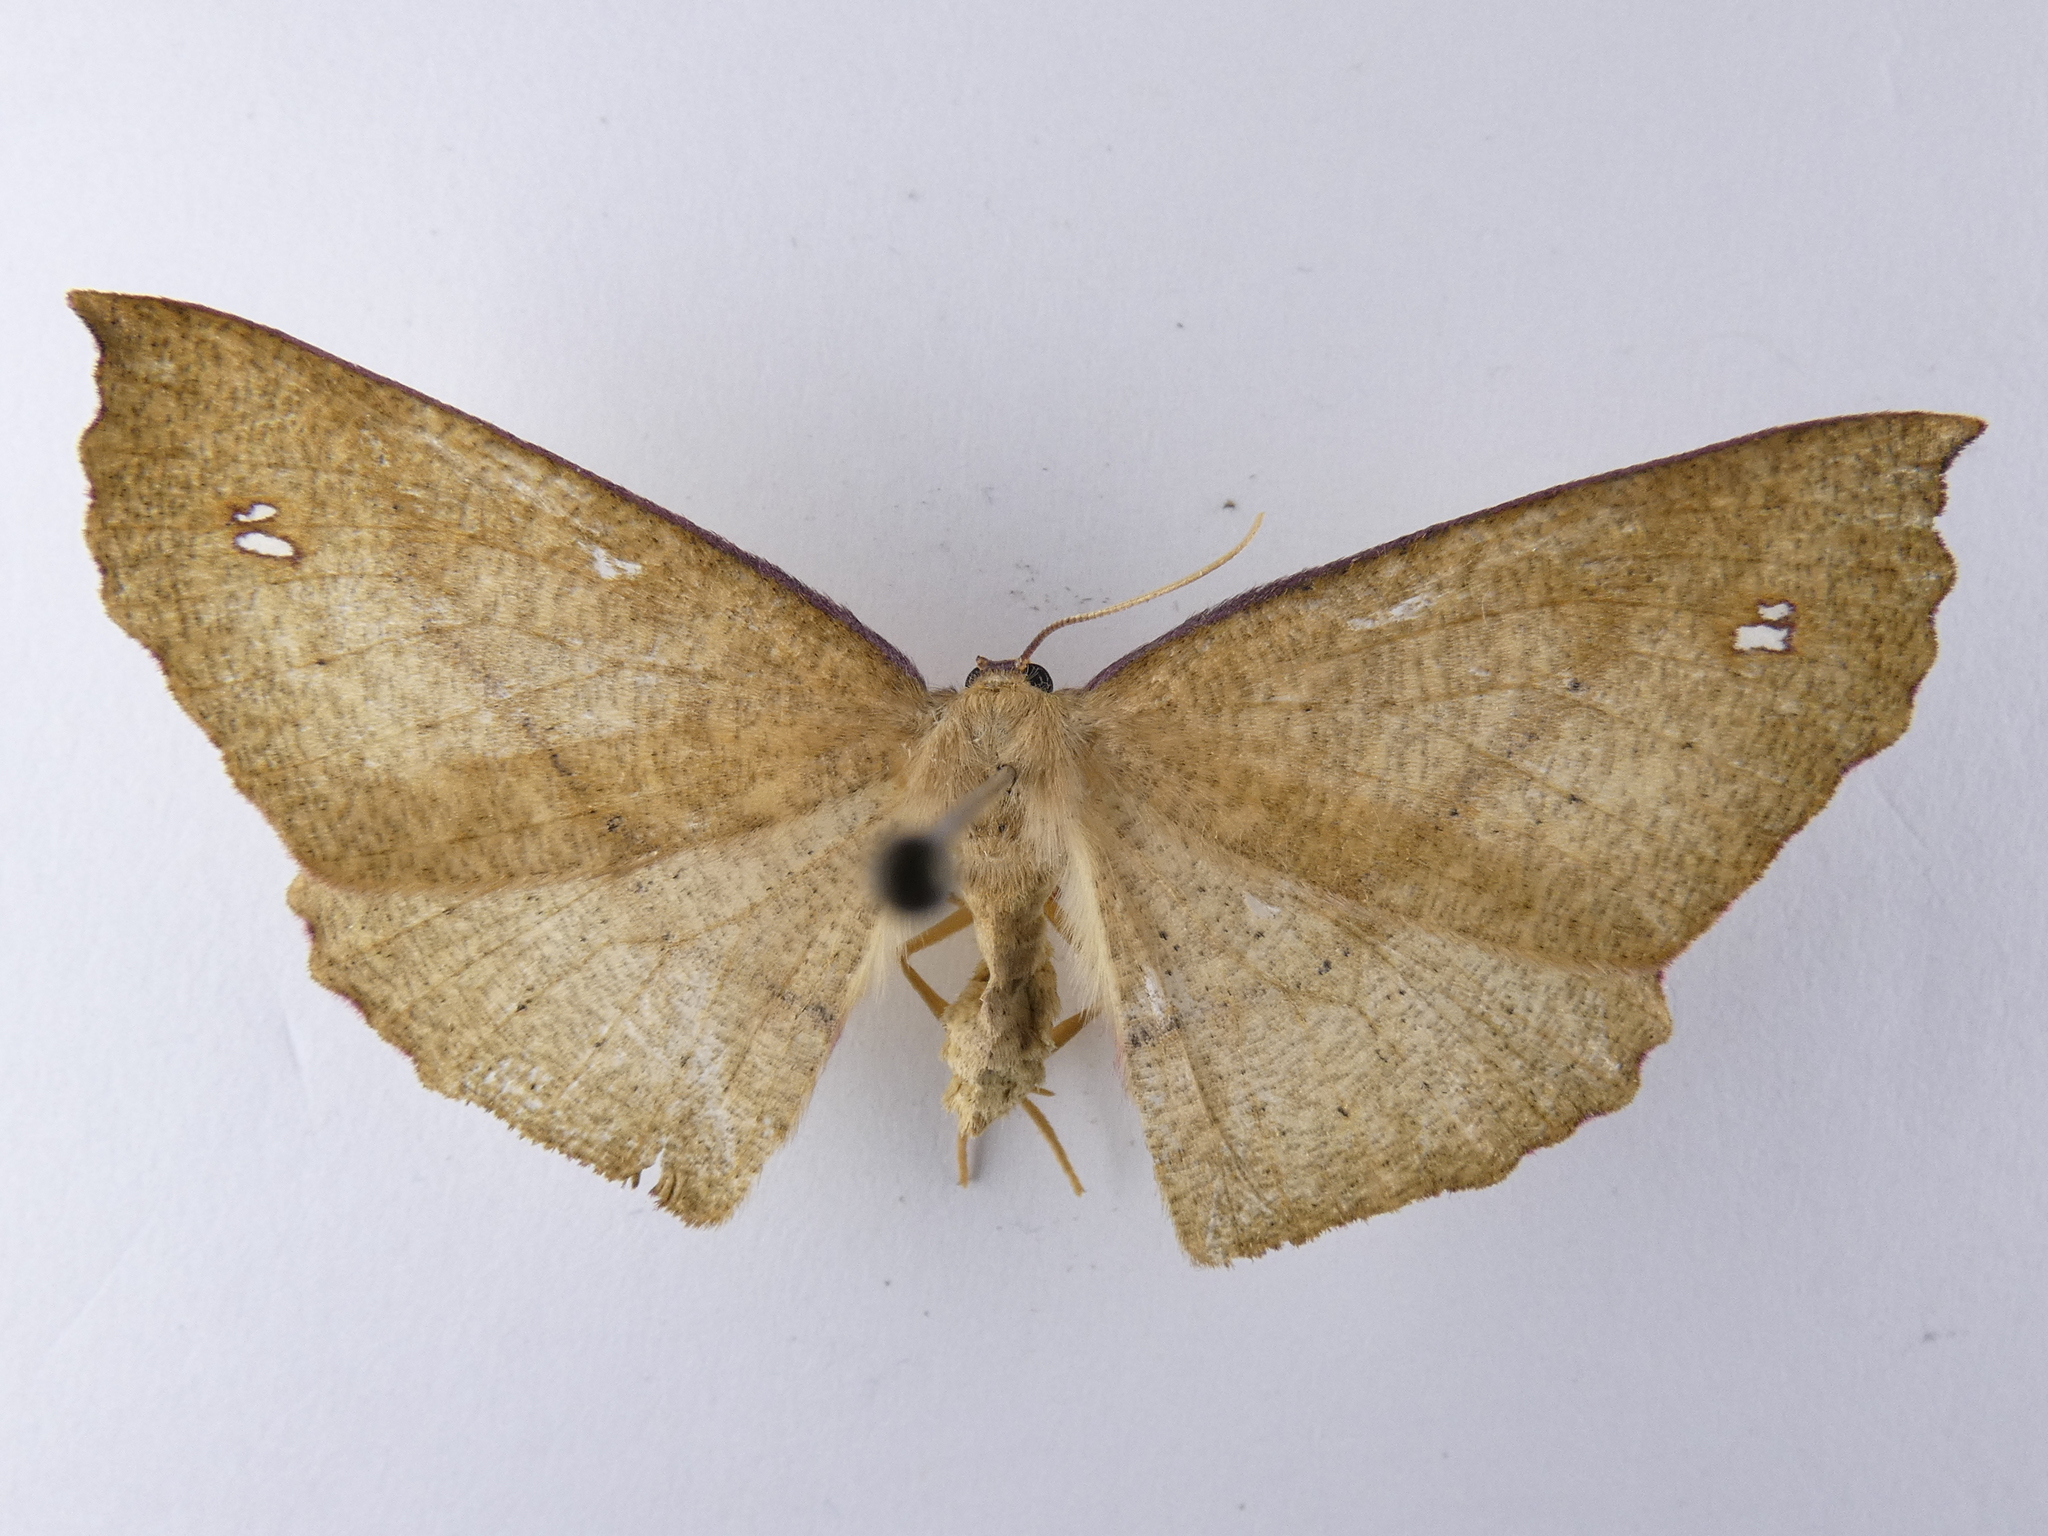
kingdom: Animalia
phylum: Arthropoda
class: Insecta
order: Lepidoptera
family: Geometridae
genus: Xyridacma
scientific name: Xyridacma alectoraria
